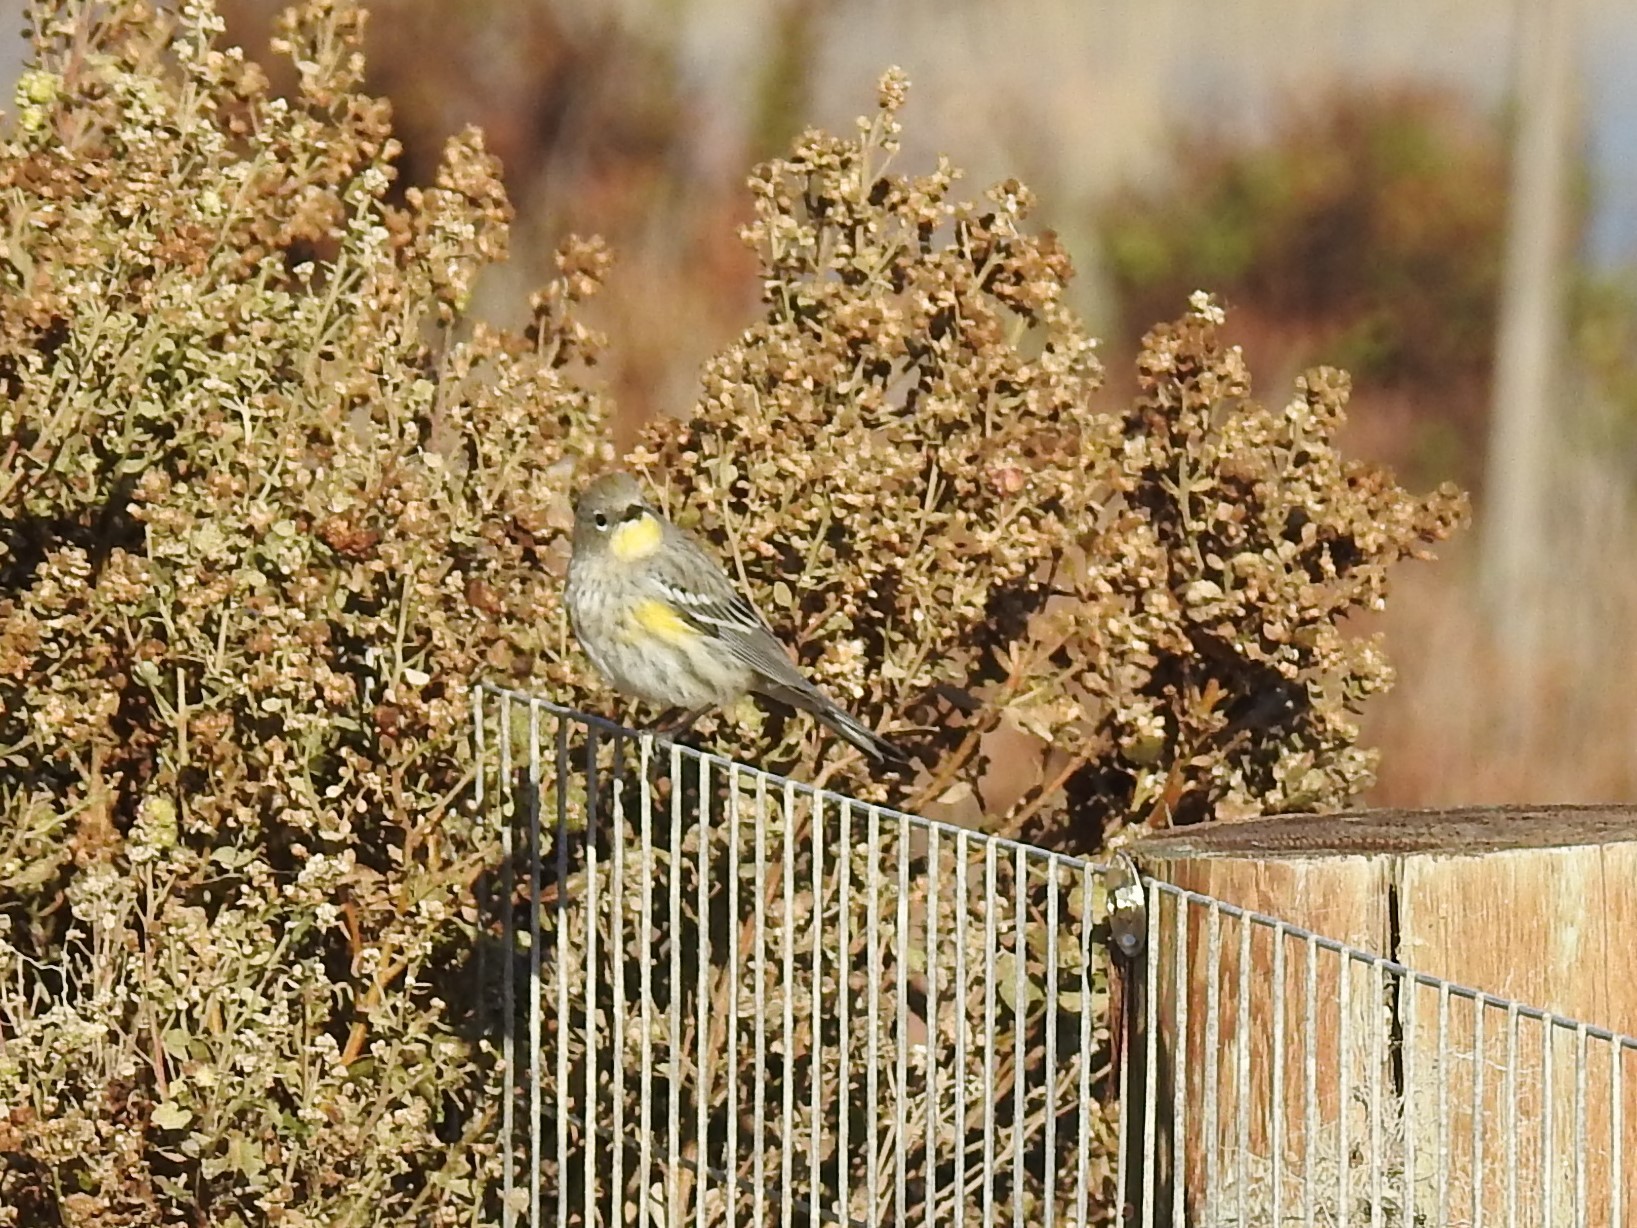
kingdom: Animalia
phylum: Chordata
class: Aves
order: Passeriformes
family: Parulidae
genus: Setophaga
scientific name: Setophaga coronata
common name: Myrtle warbler
